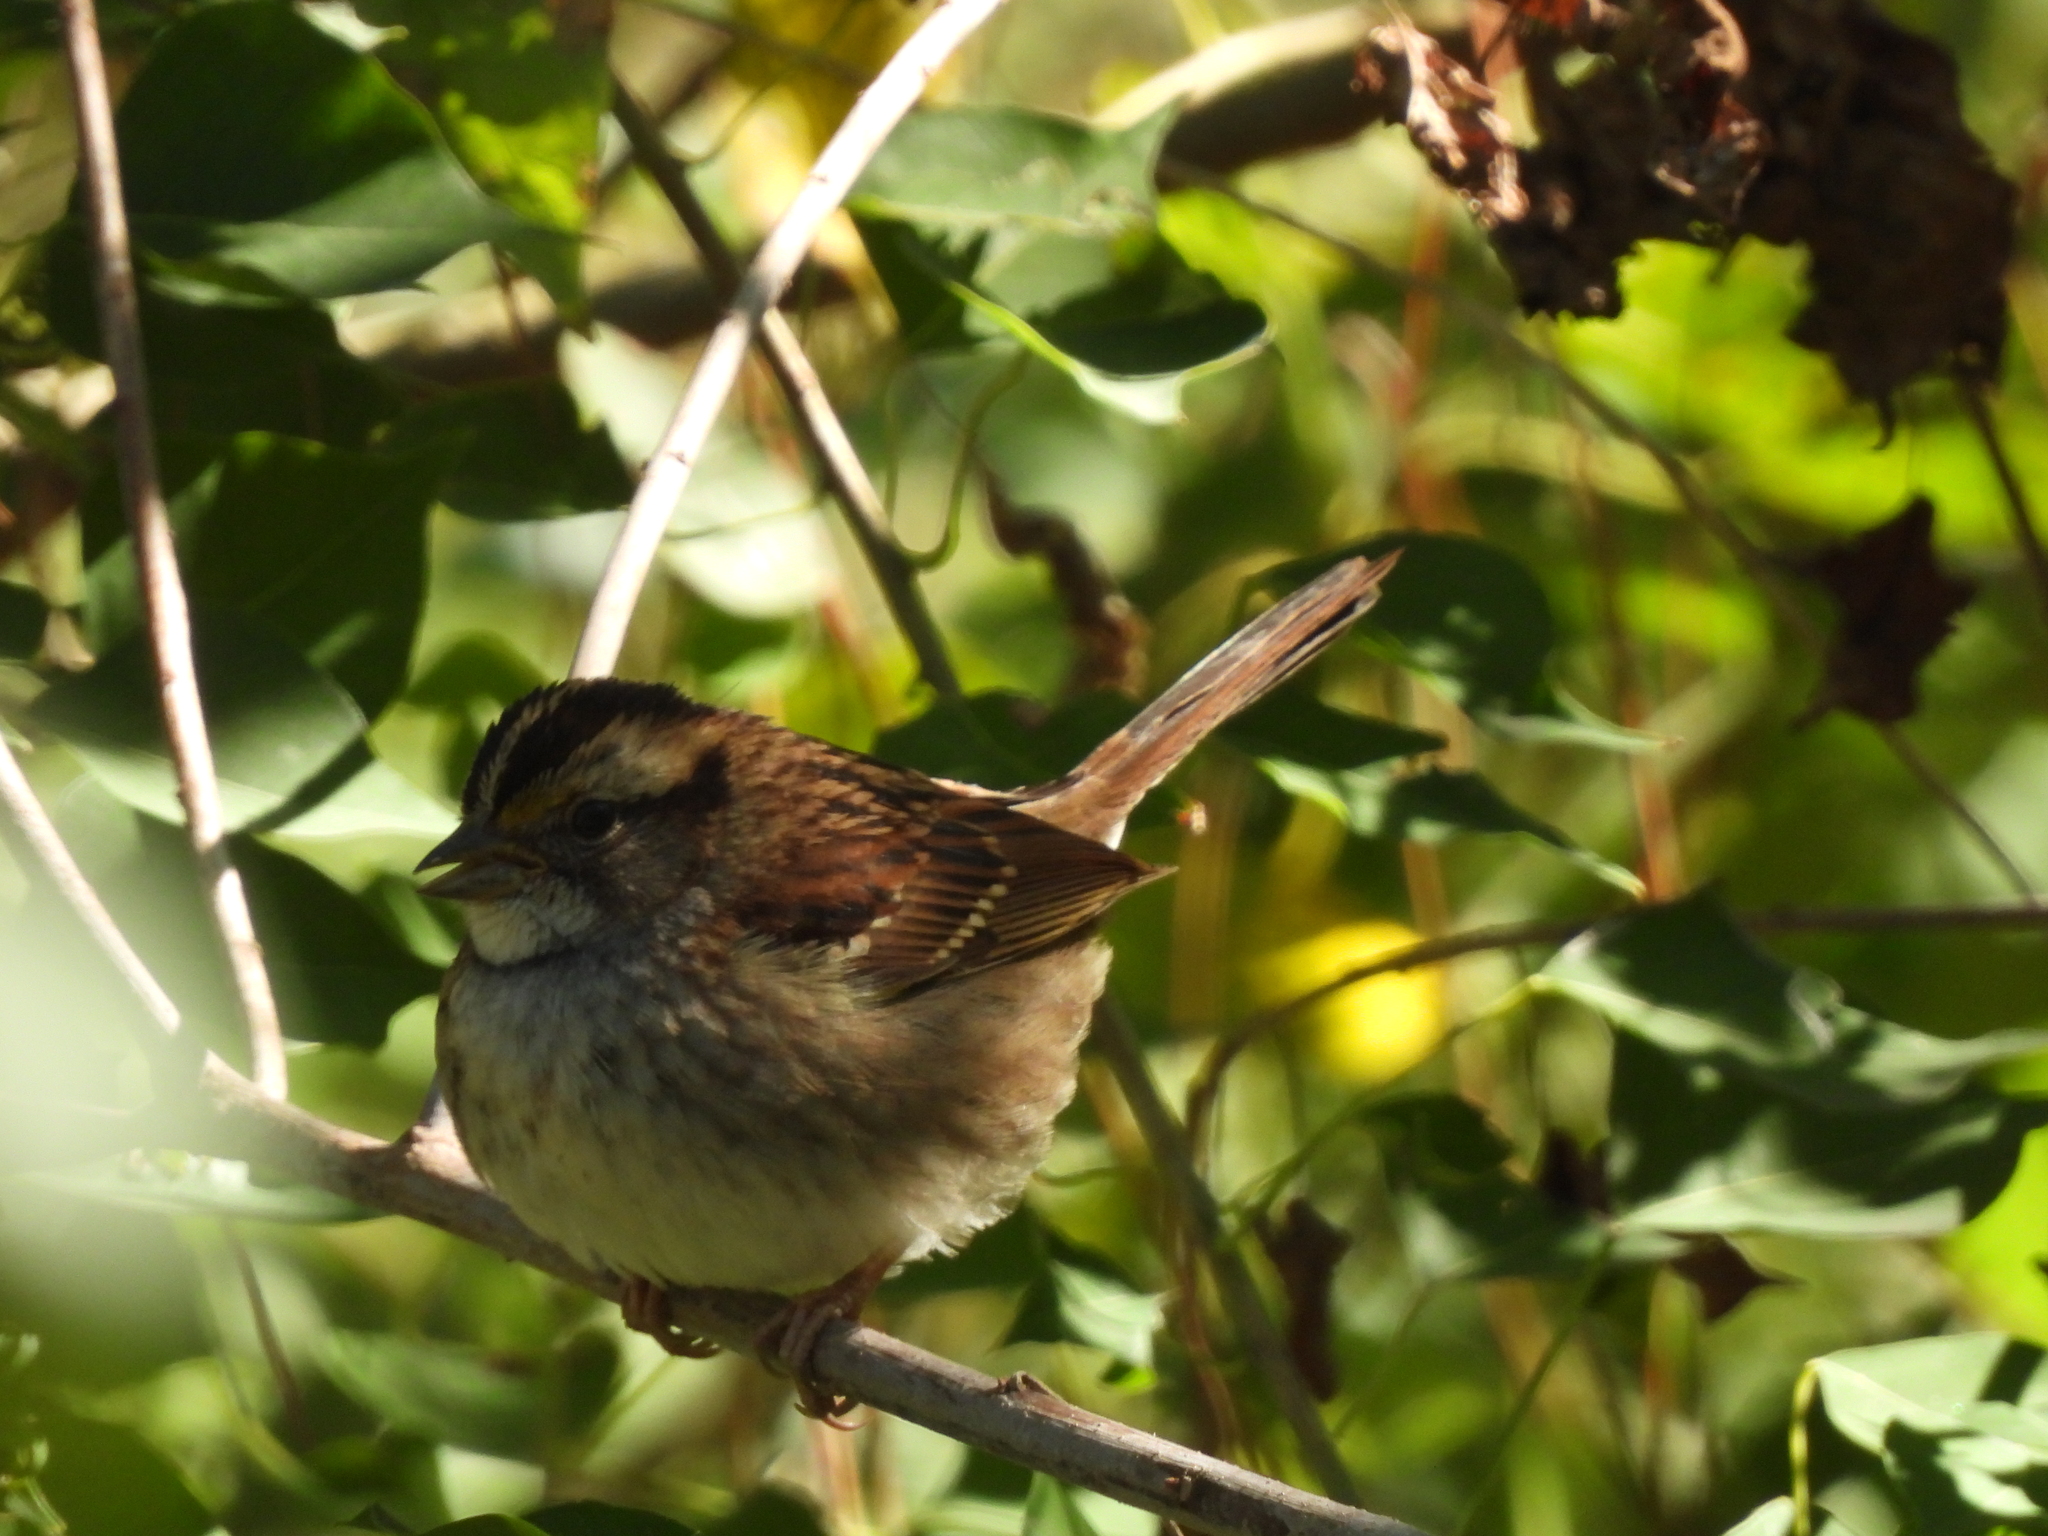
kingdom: Animalia
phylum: Chordata
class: Aves
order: Passeriformes
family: Passerellidae
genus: Zonotrichia
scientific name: Zonotrichia albicollis
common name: White-throated sparrow
